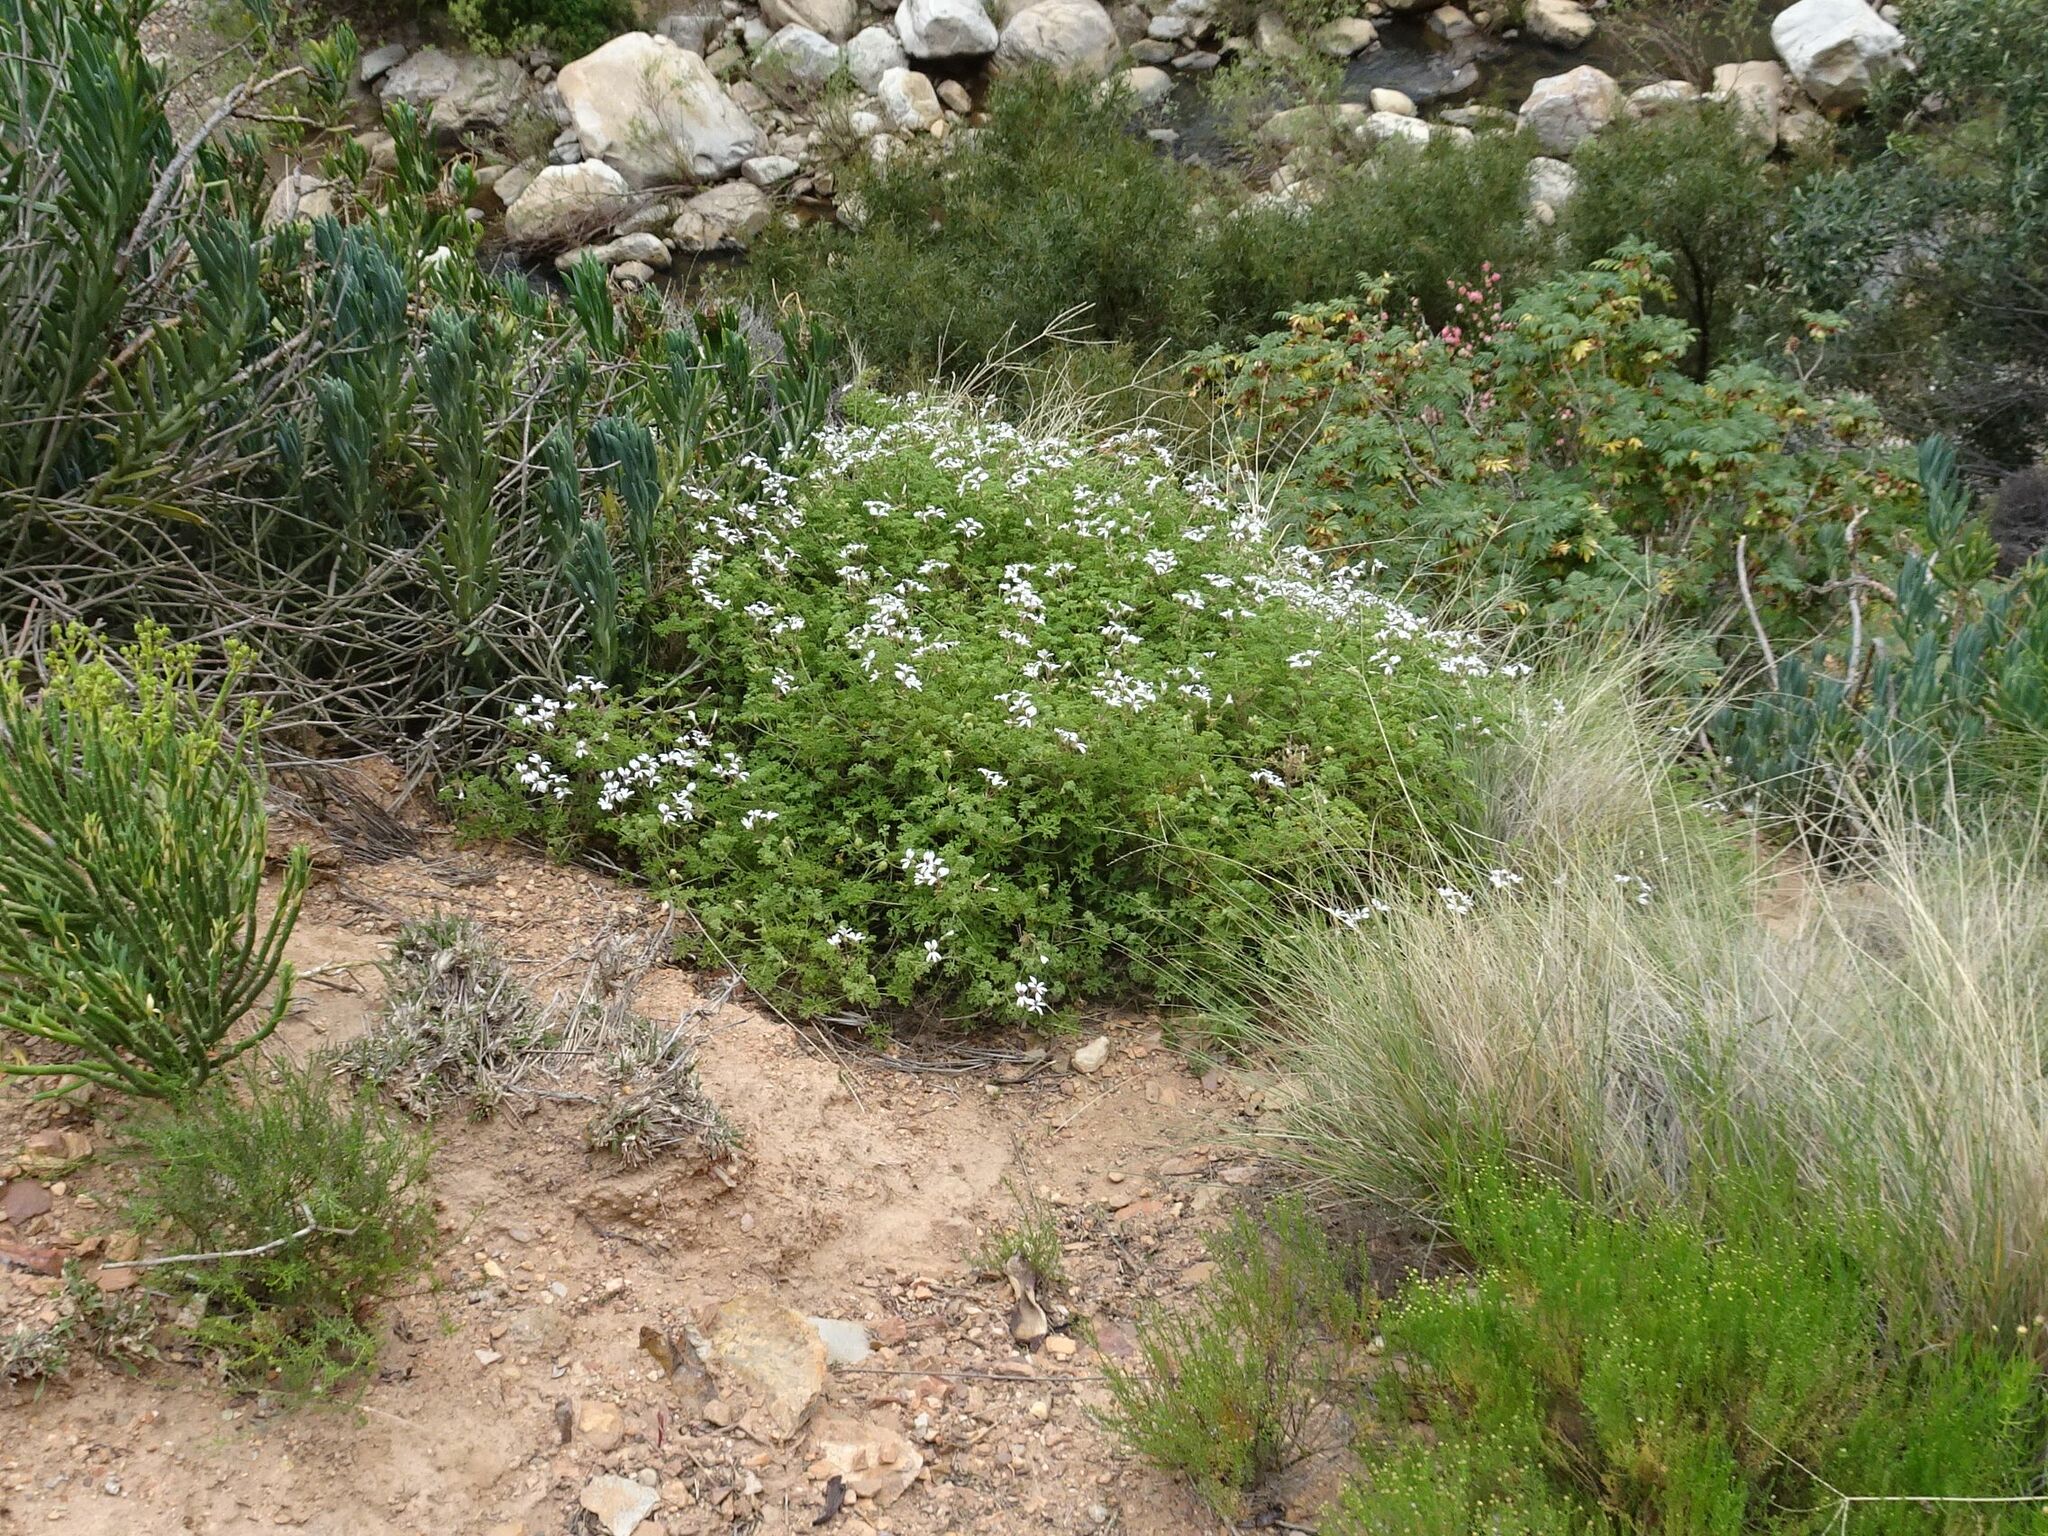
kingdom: Plantae
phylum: Tracheophyta
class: Magnoliopsida
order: Geraniales
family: Geraniaceae
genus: Pelargonium
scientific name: Pelargonium trifidum
